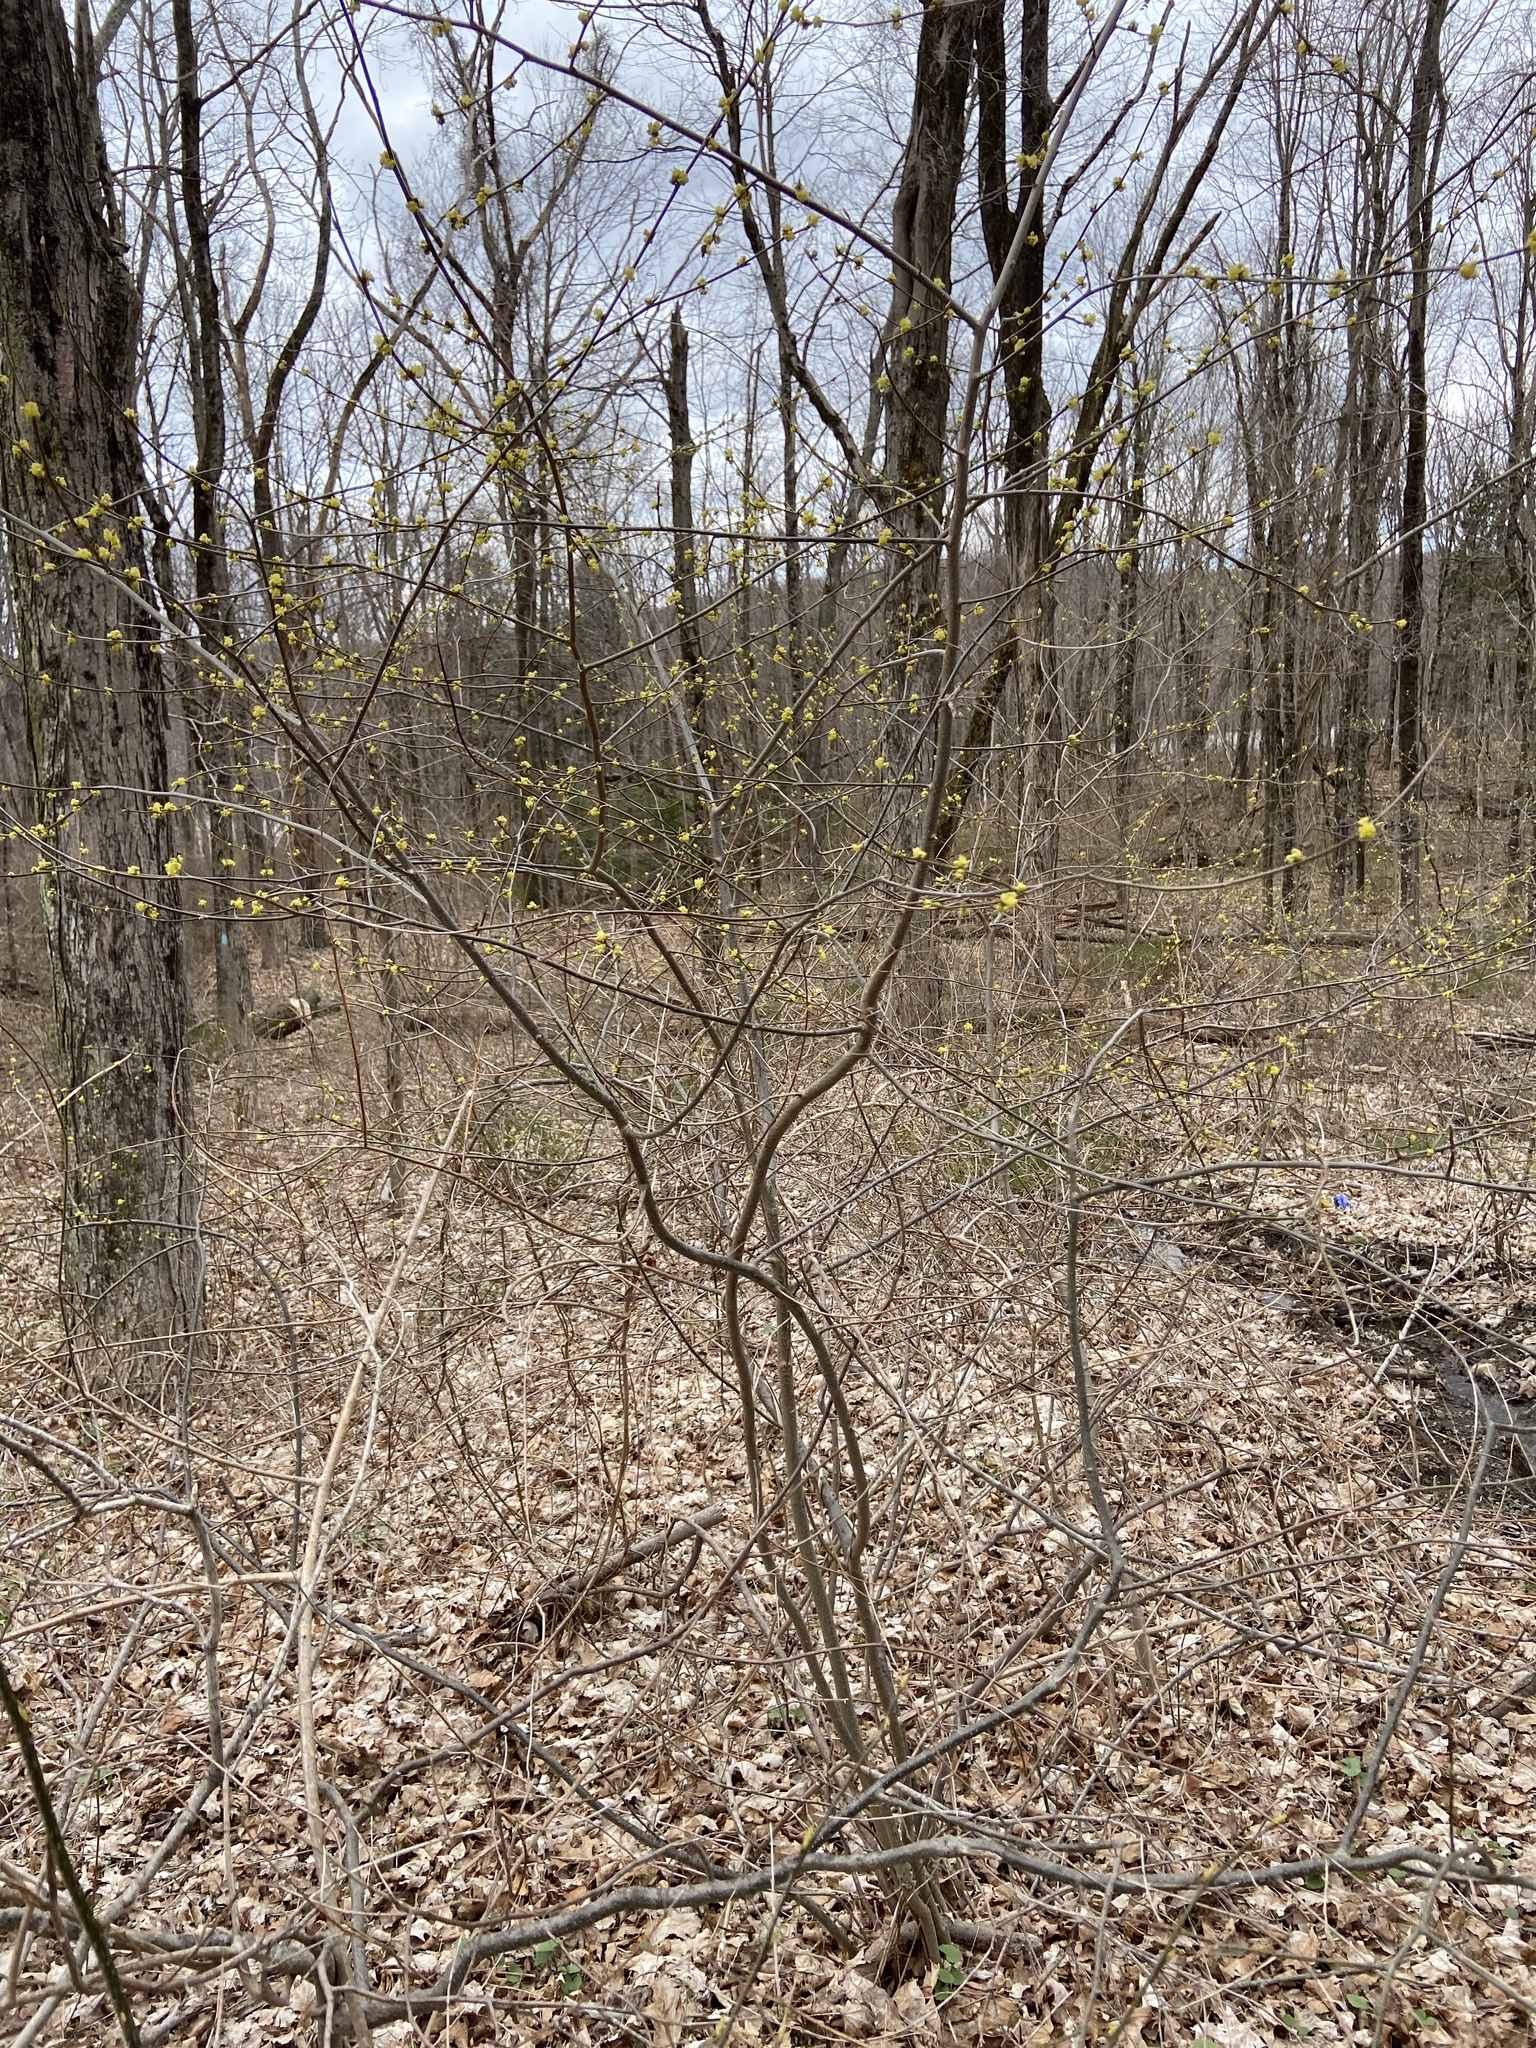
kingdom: Plantae
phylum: Tracheophyta
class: Magnoliopsida
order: Laurales
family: Lauraceae
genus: Lindera
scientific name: Lindera benzoin
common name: Spicebush
